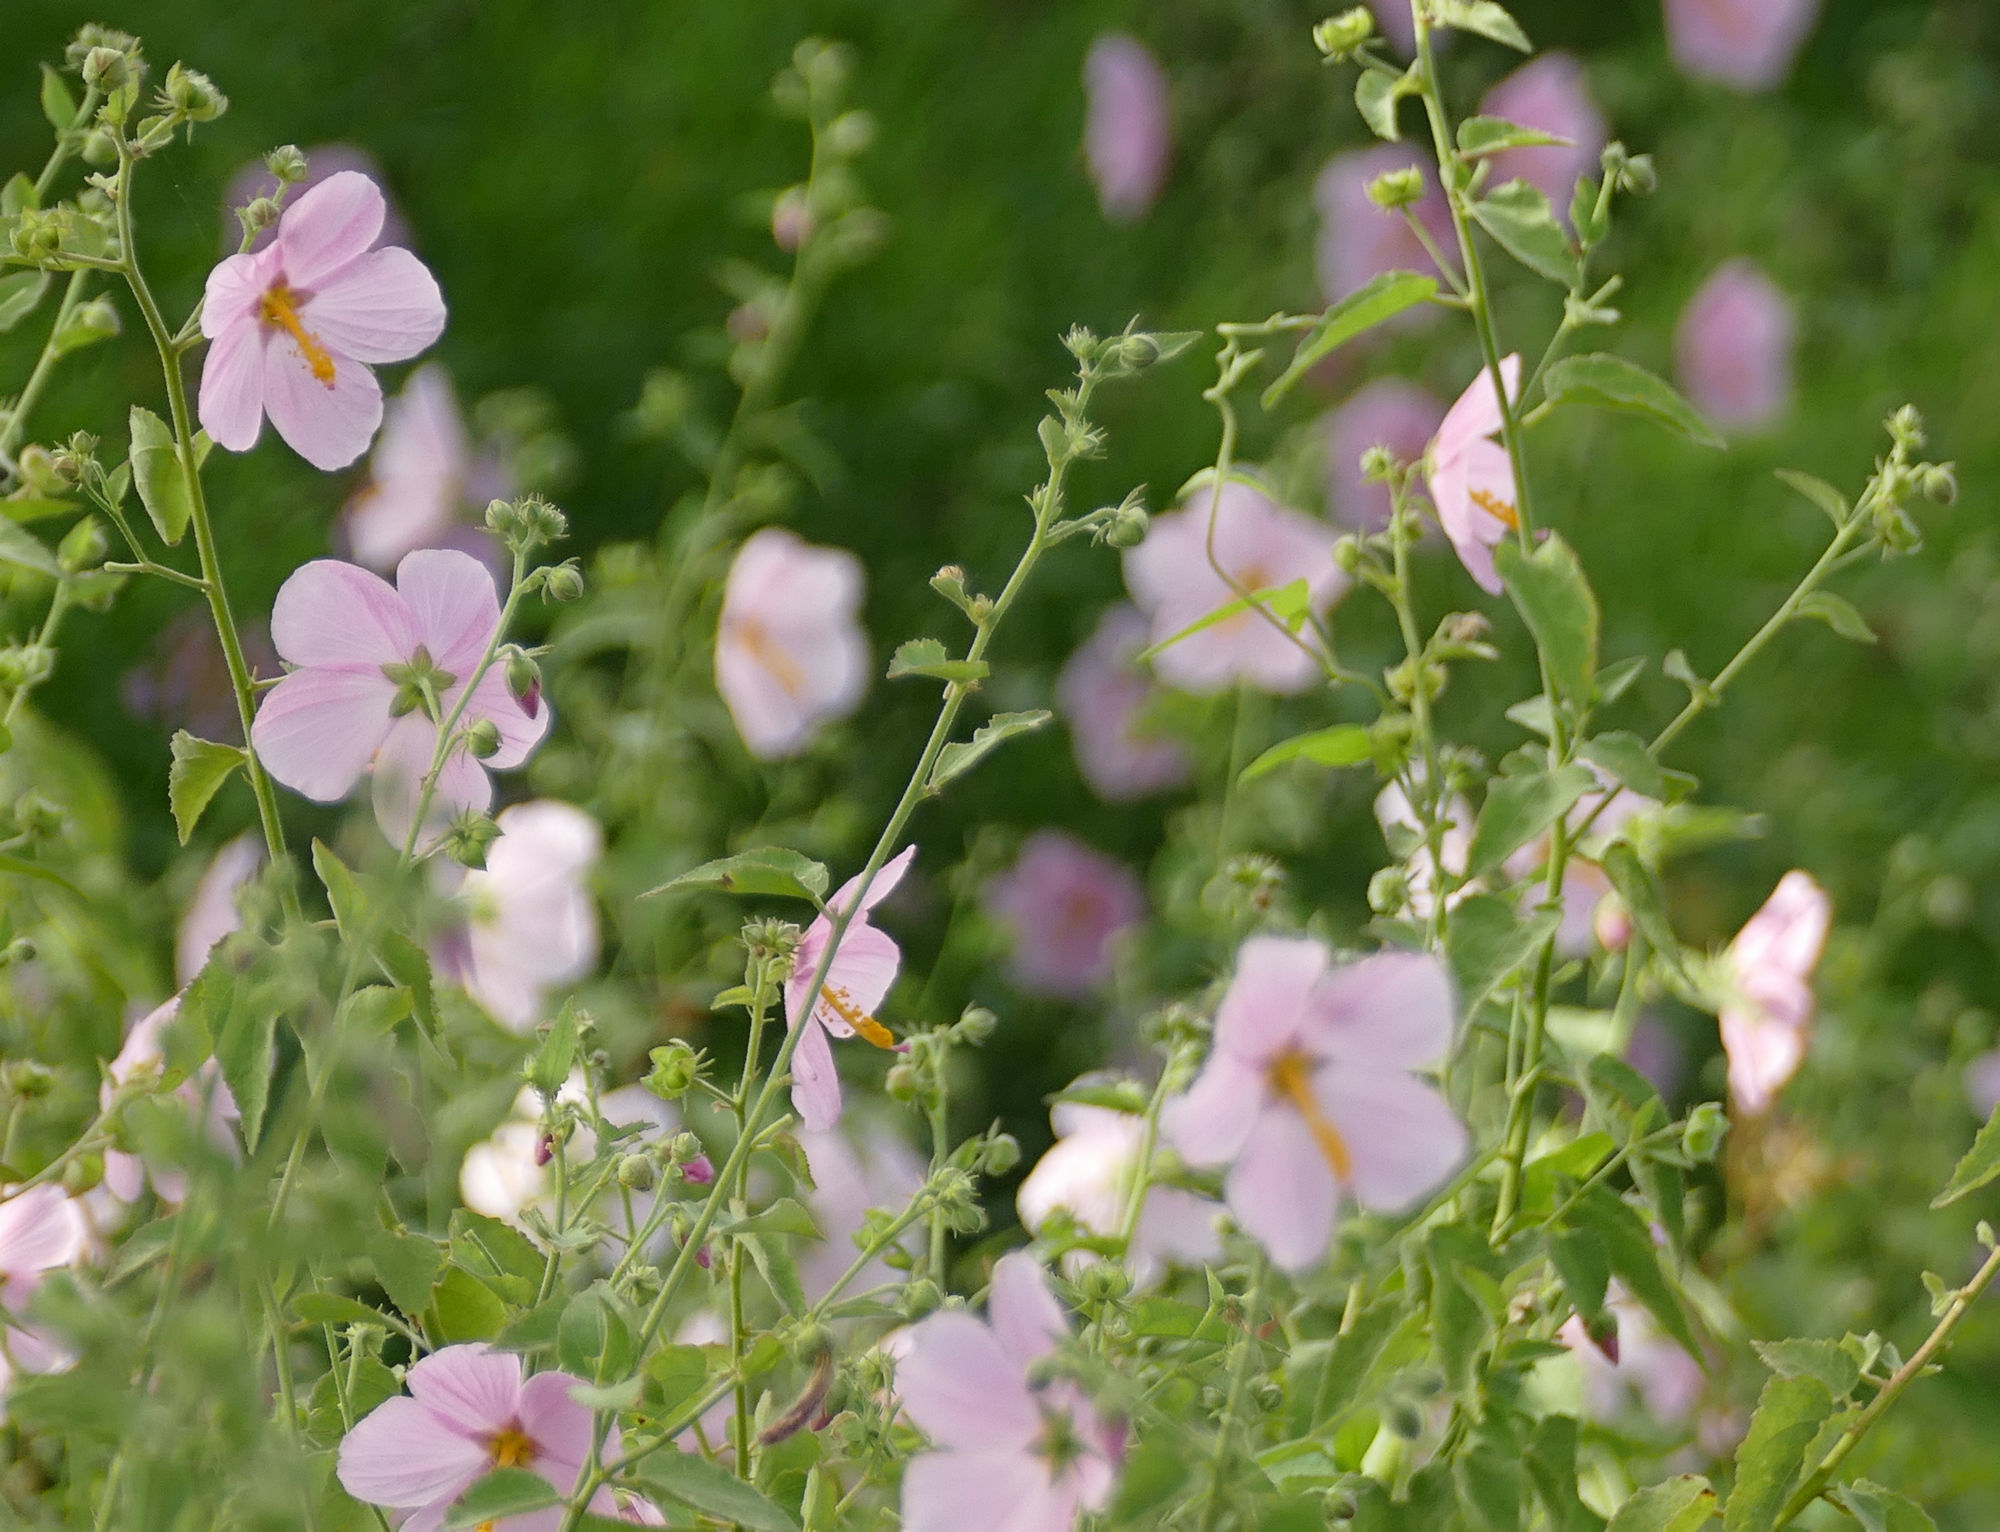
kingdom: Plantae
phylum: Tracheophyta
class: Magnoliopsida
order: Malvales
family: Malvaceae
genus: Kosteletzkya
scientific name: Kosteletzkya pentacarpos
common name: Virginia saltmarsh mallow
